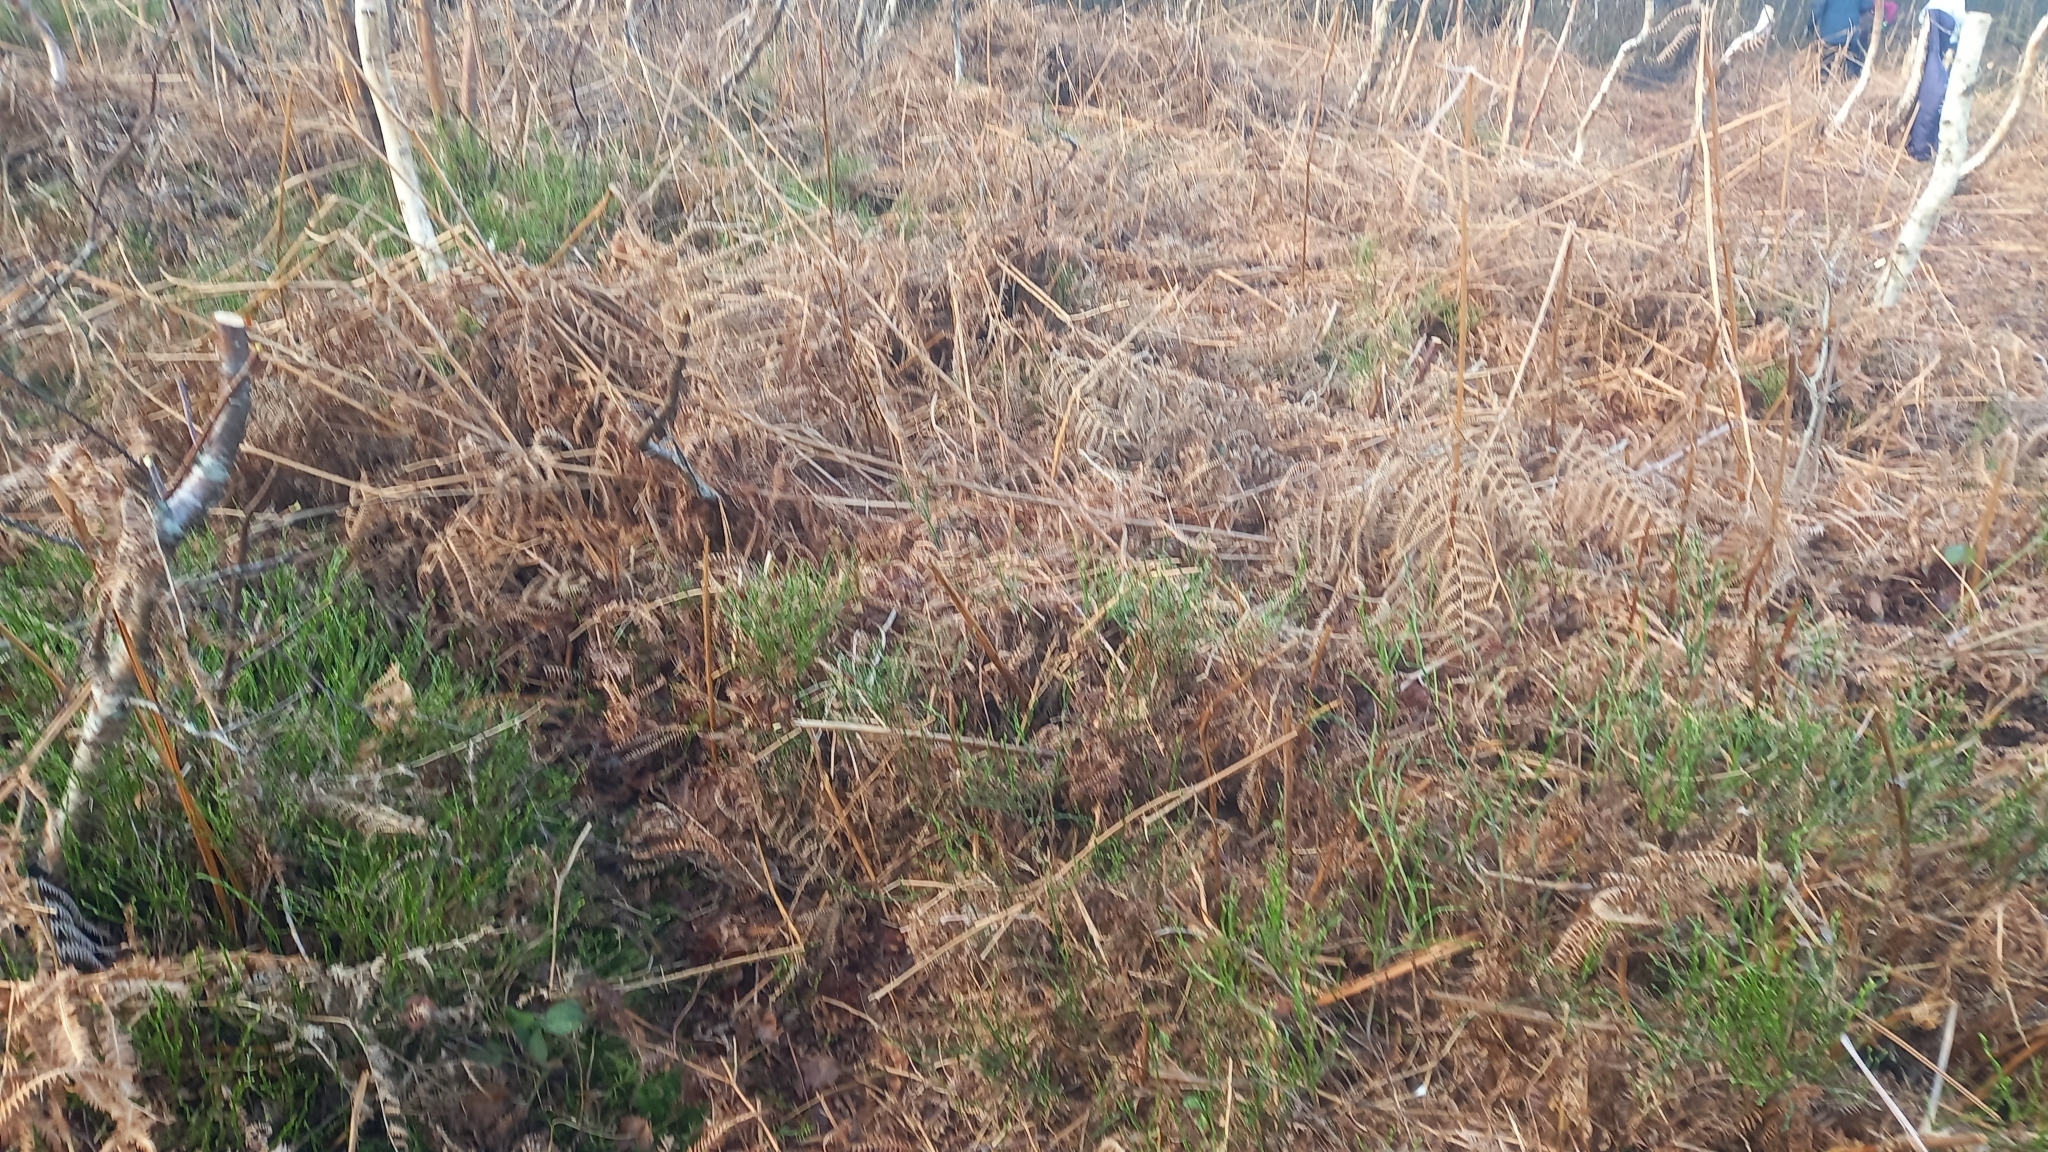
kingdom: Plantae
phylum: Tracheophyta
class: Magnoliopsida
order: Ericales
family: Ericaceae
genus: Vaccinium
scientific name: Vaccinium myrtillus
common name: Bilberry
